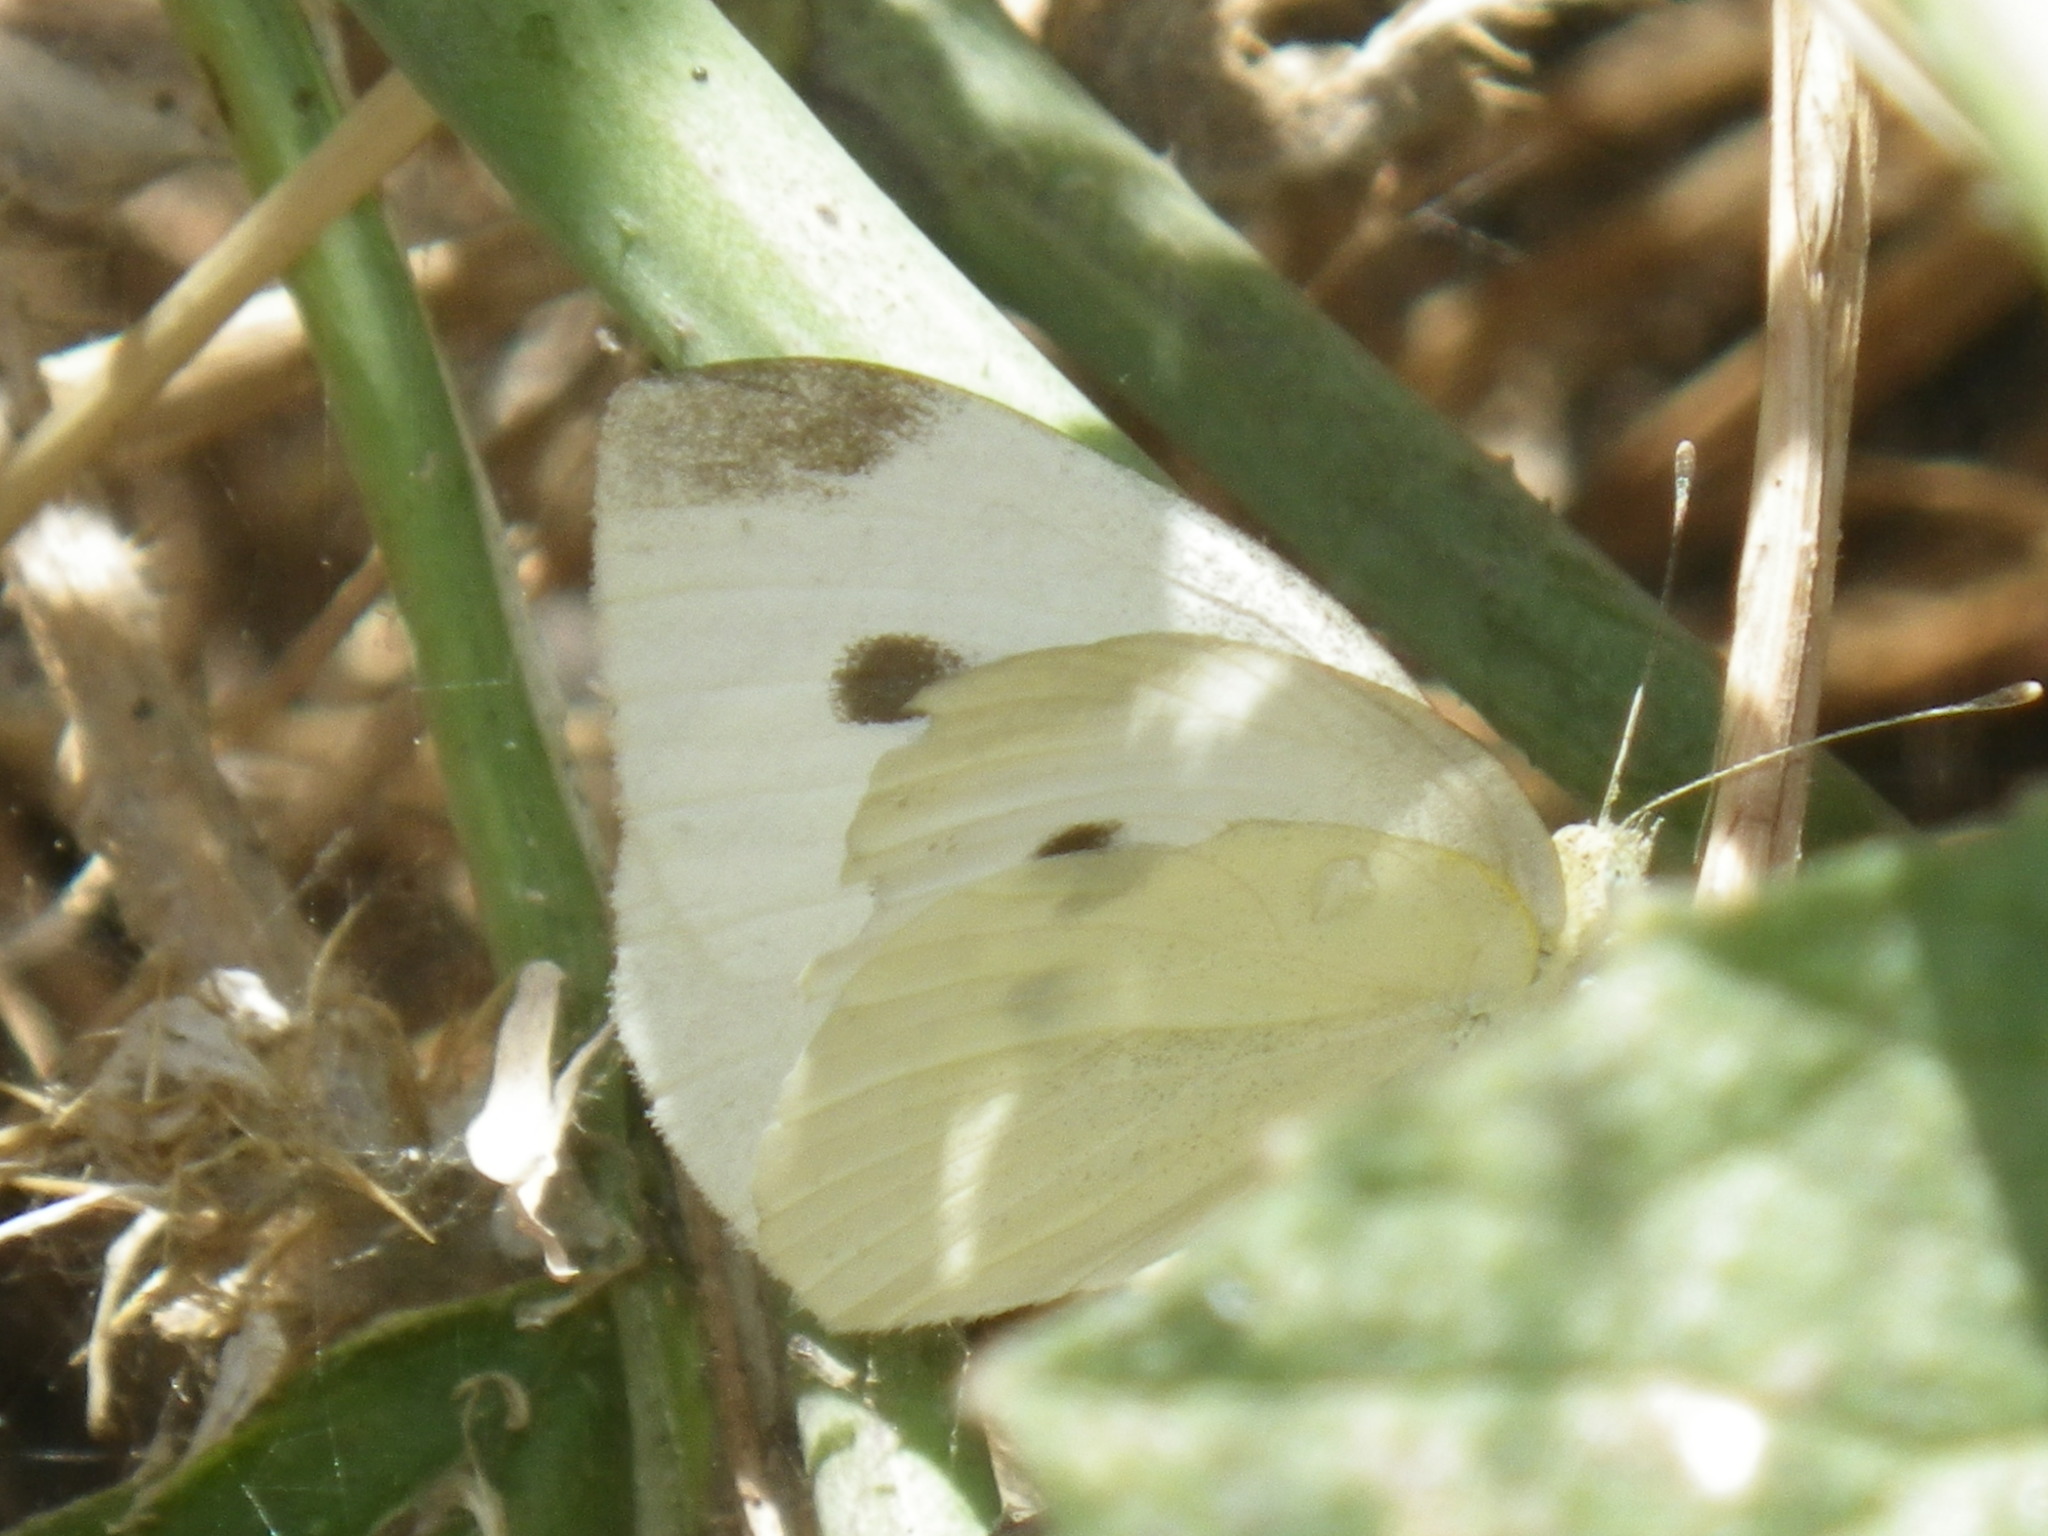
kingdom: Animalia
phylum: Arthropoda
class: Insecta
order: Lepidoptera
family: Pieridae
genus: Pieris
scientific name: Pieris rapae
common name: Small white
